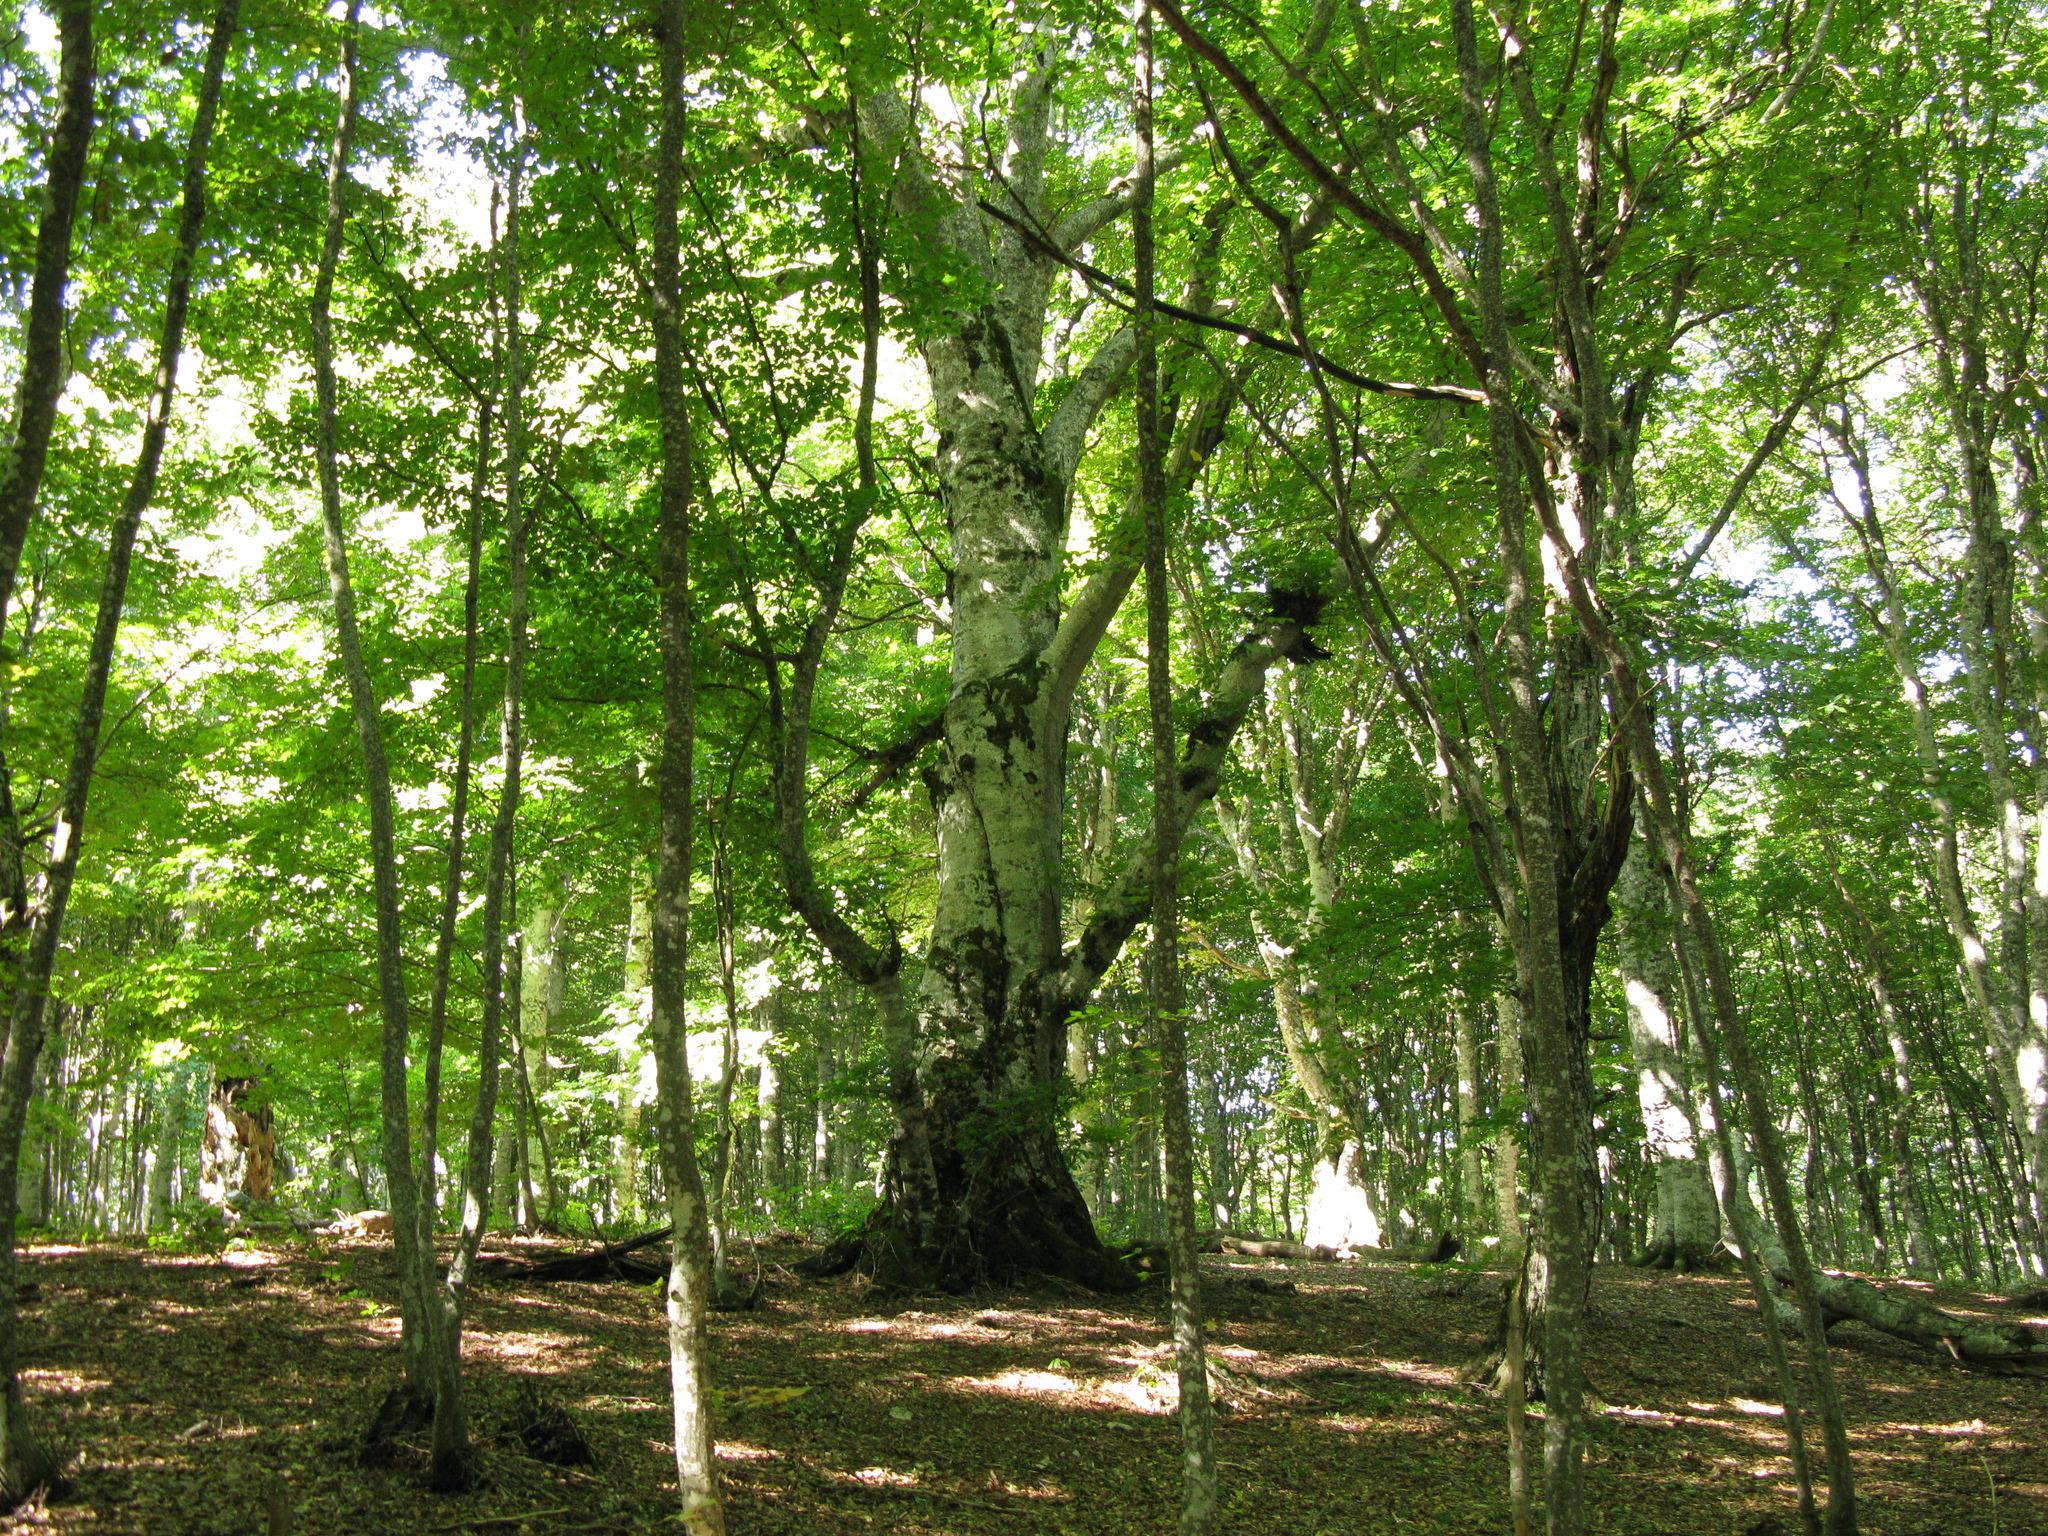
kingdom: Plantae
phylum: Tracheophyta
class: Magnoliopsida
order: Fagales
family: Fagaceae
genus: Fagus
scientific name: Fagus taurica
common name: Crimean beech
